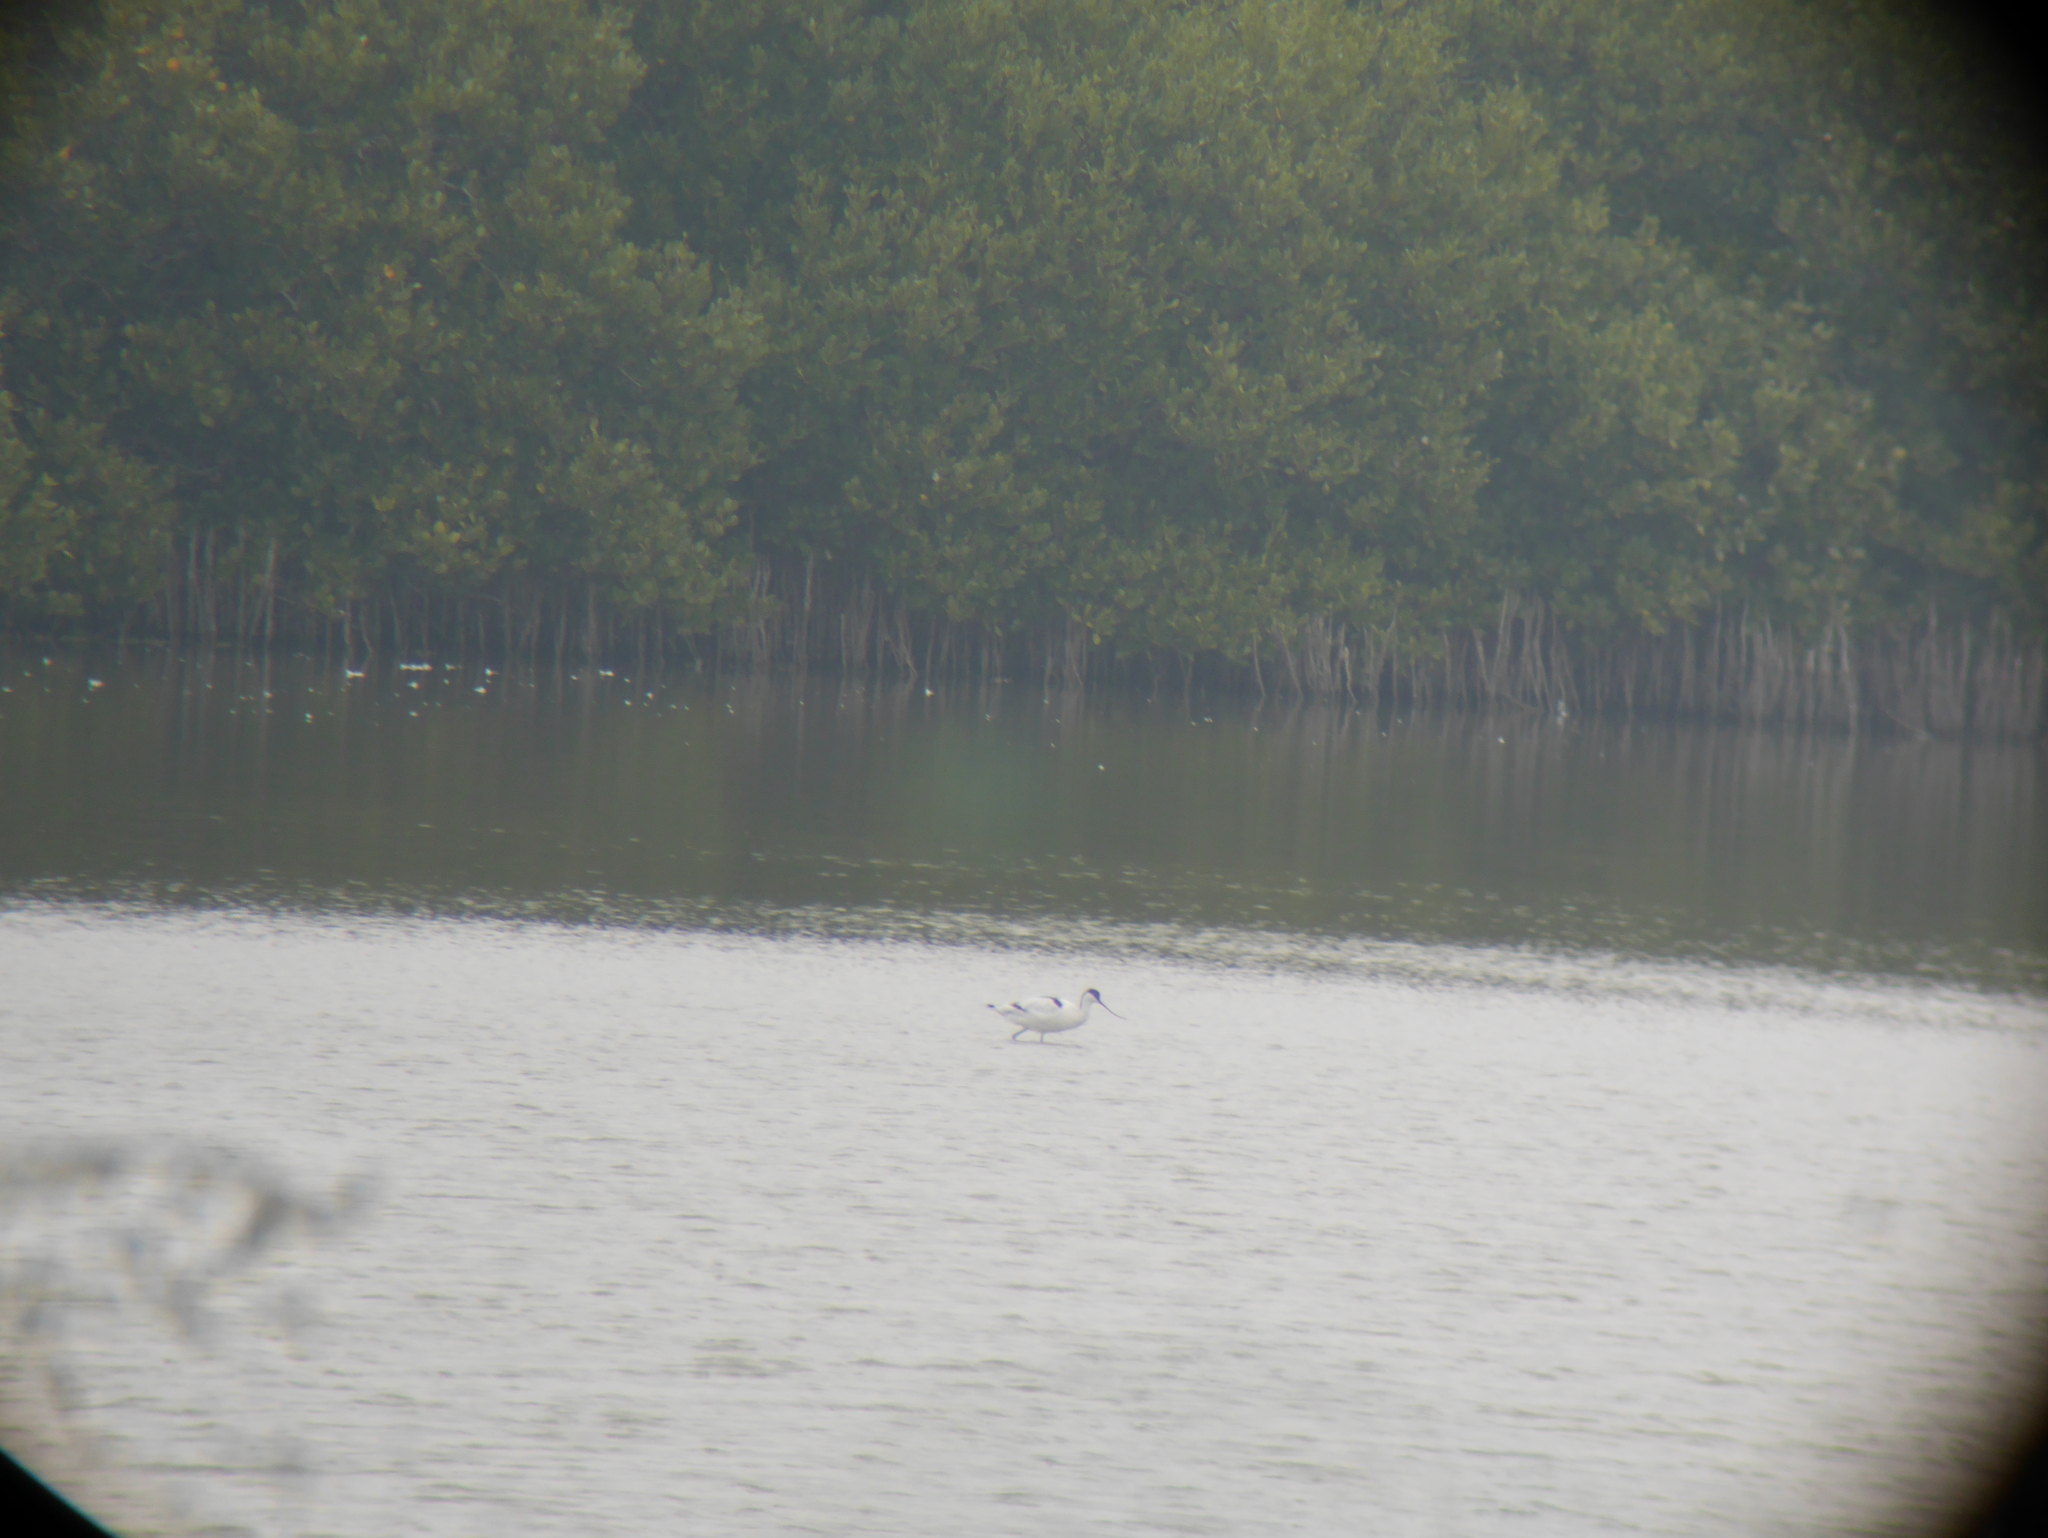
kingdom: Animalia
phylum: Chordata
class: Aves
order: Charadriiformes
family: Recurvirostridae
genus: Recurvirostra
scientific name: Recurvirostra avosetta
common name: Pied avocet
